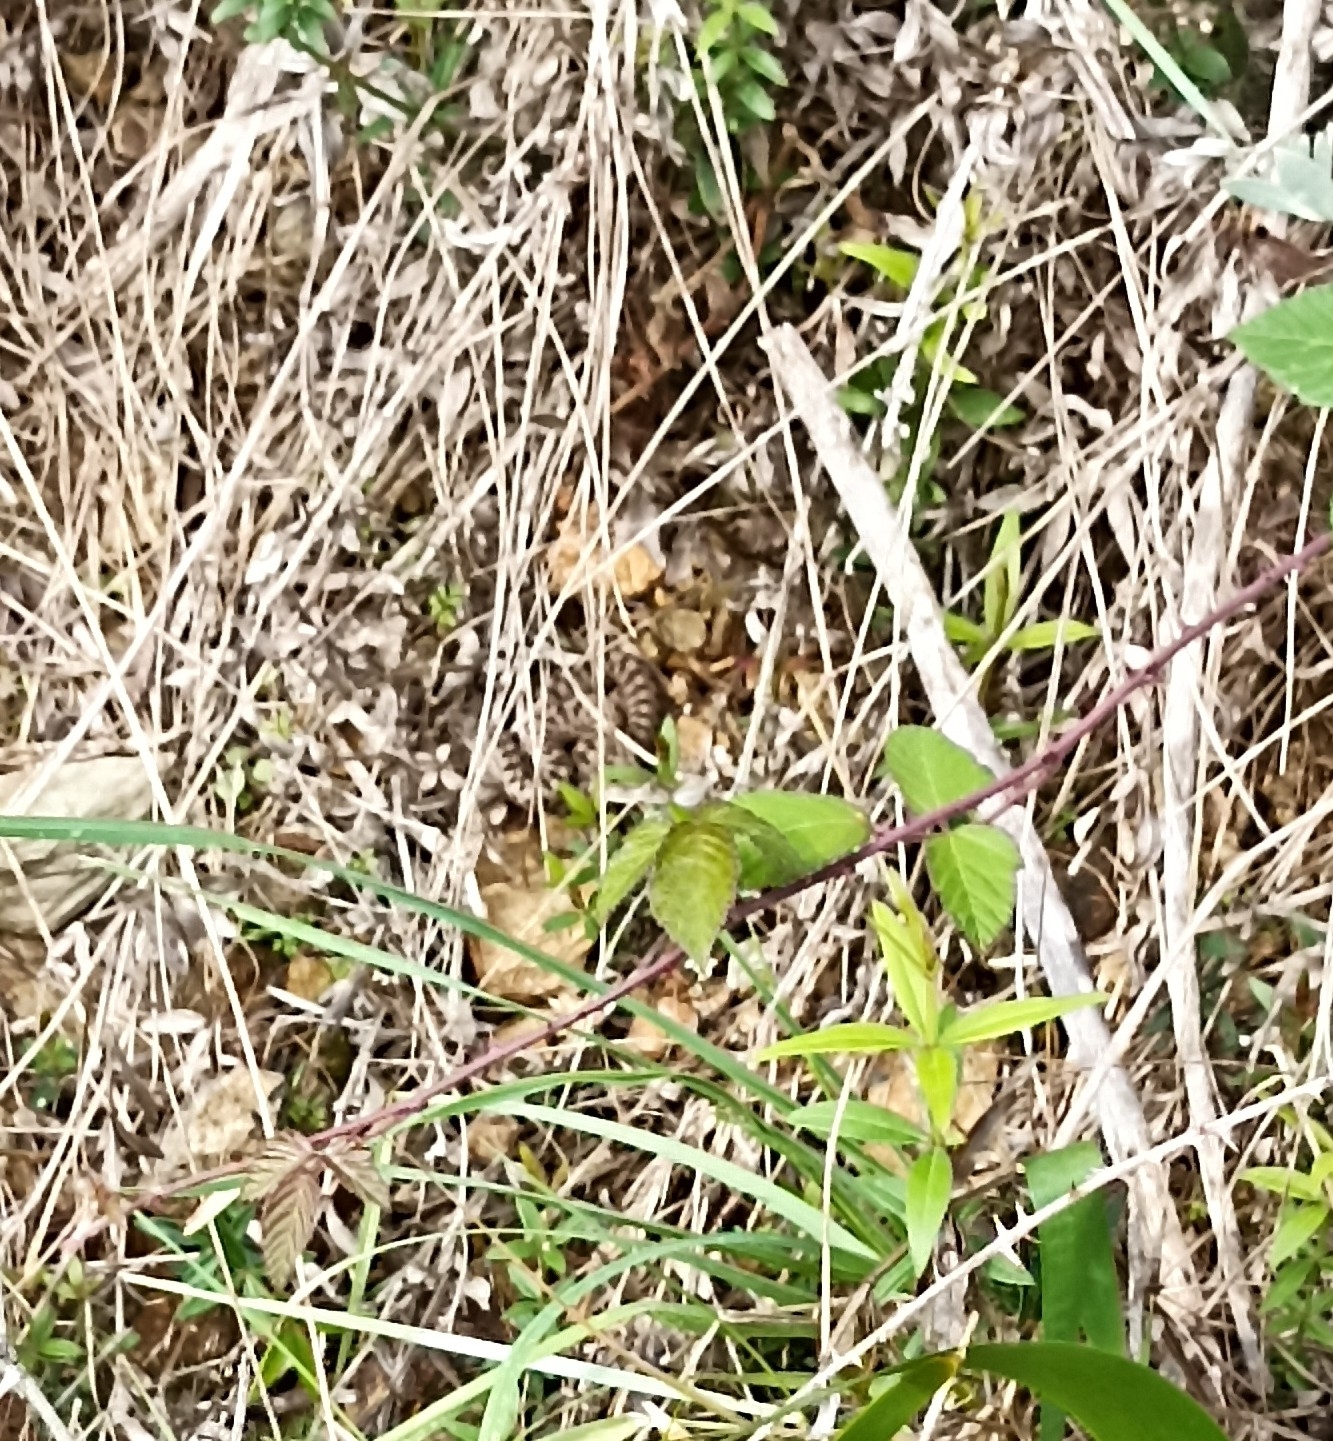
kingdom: Animalia
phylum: Chordata
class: Squamata
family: Viperidae
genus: Vipera
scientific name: Vipera aspis
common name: Asp viper
